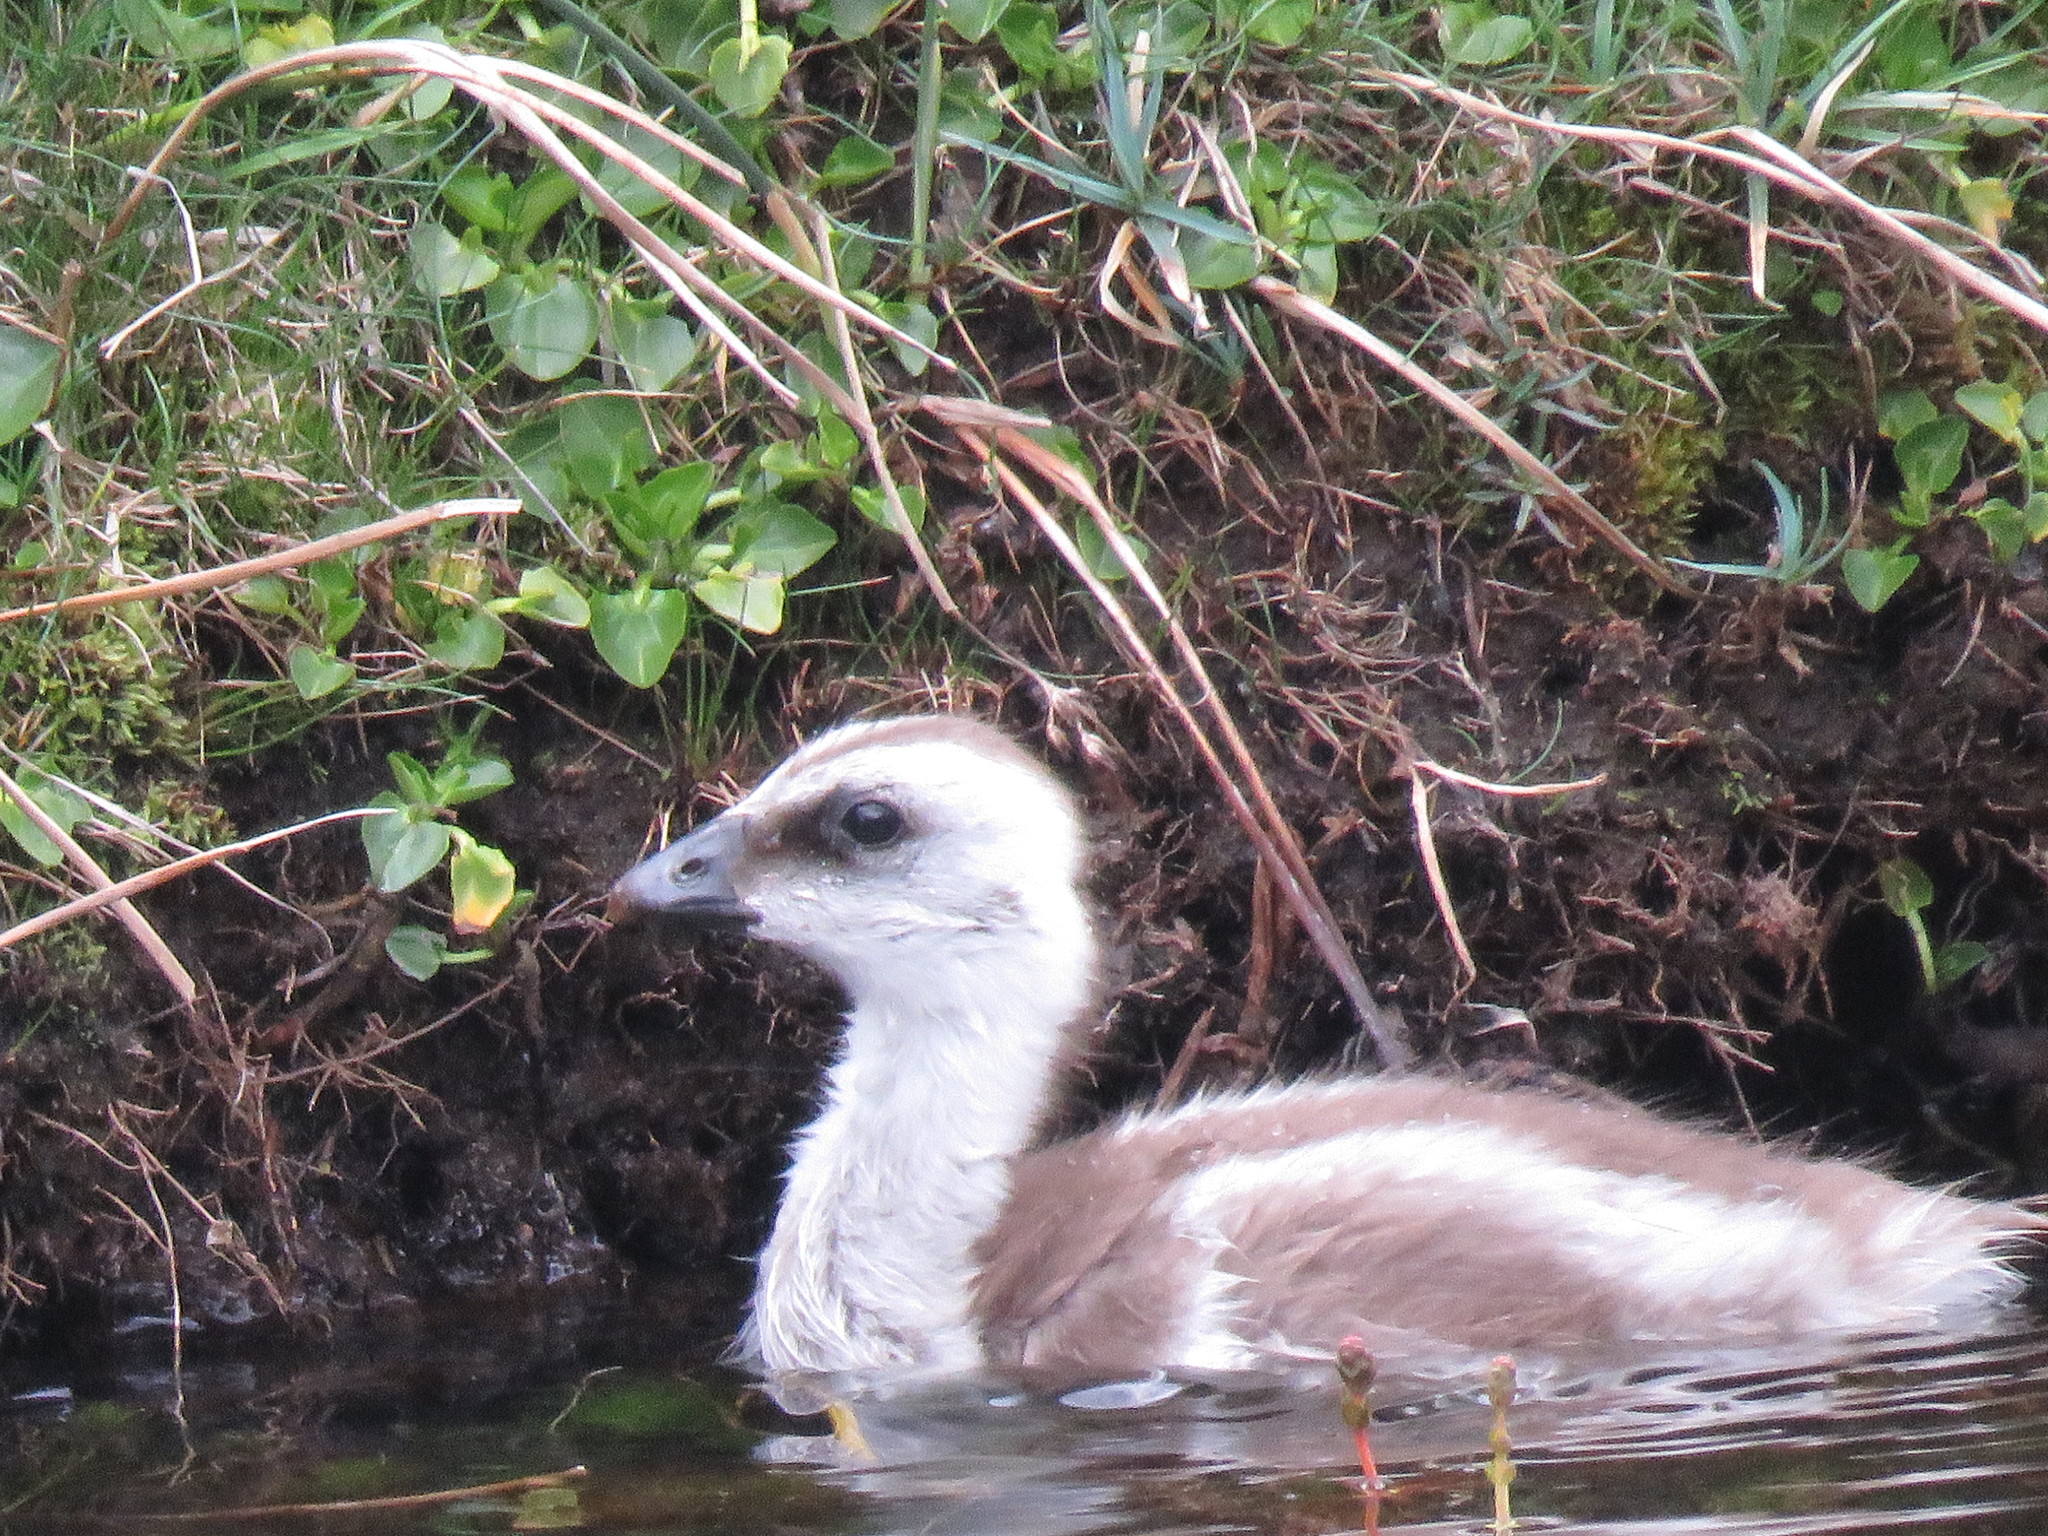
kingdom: Animalia
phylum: Chordata
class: Aves
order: Anseriformes
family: Anatidae
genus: Chloephaga
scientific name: Chloephaga picta
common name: Upland goose
